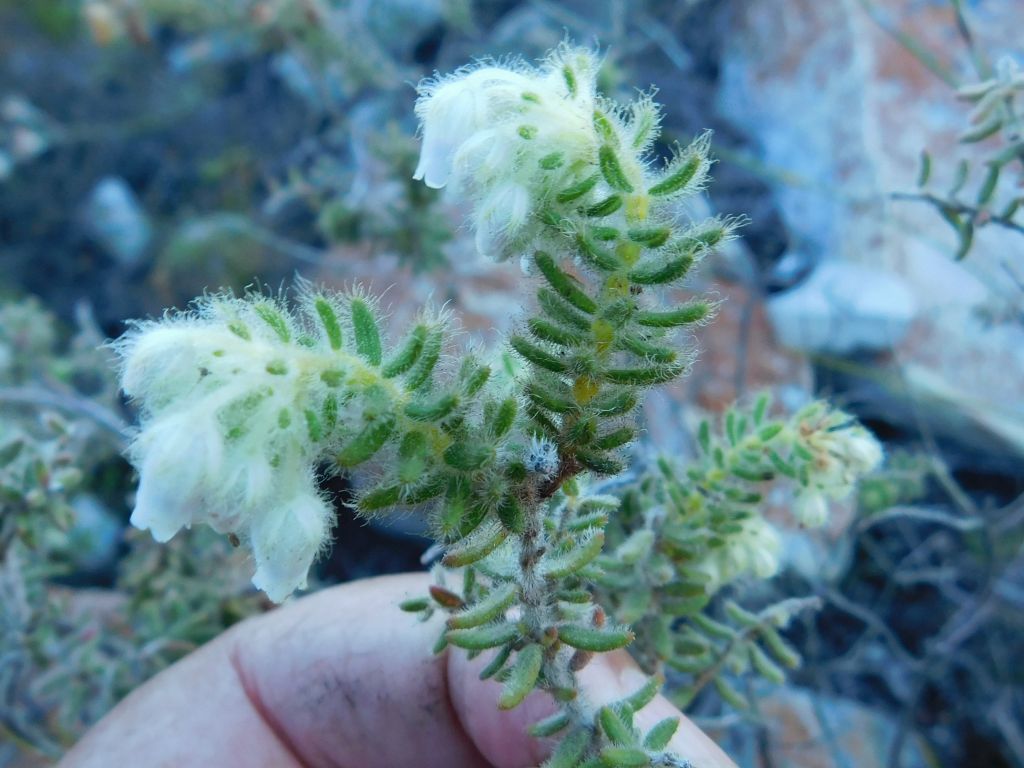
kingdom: Plantae
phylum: Tracheophyta
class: Magnoliopsida
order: Ericales
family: Ericaceae
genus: Erica
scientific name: Erica pannosa
